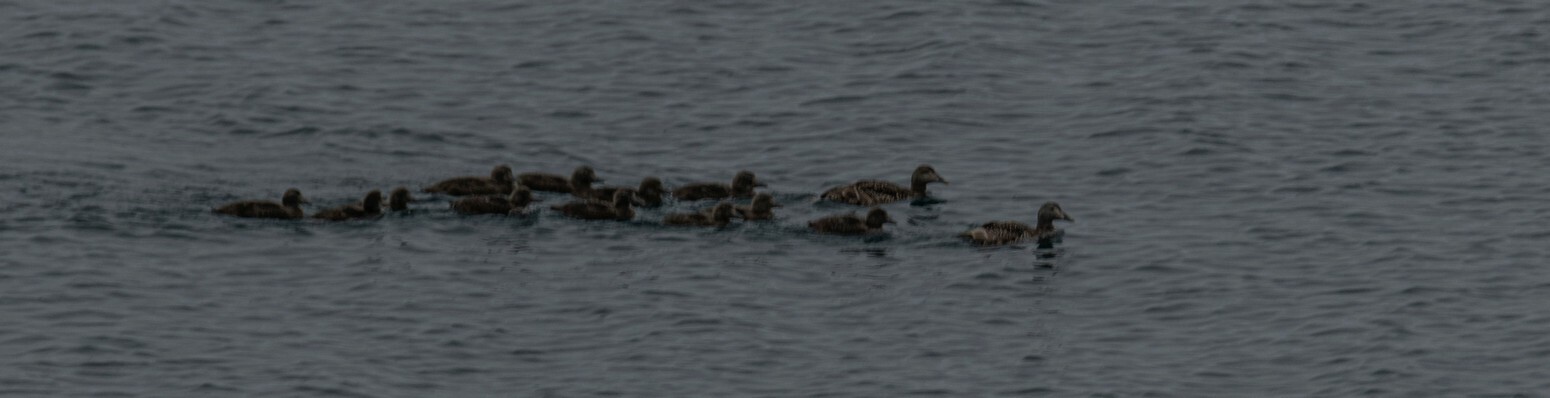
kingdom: Animalia
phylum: Chordata
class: Aves
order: Anseriformes
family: Anatidae
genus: Somateria
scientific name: Somateria mollissima
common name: Common eider
